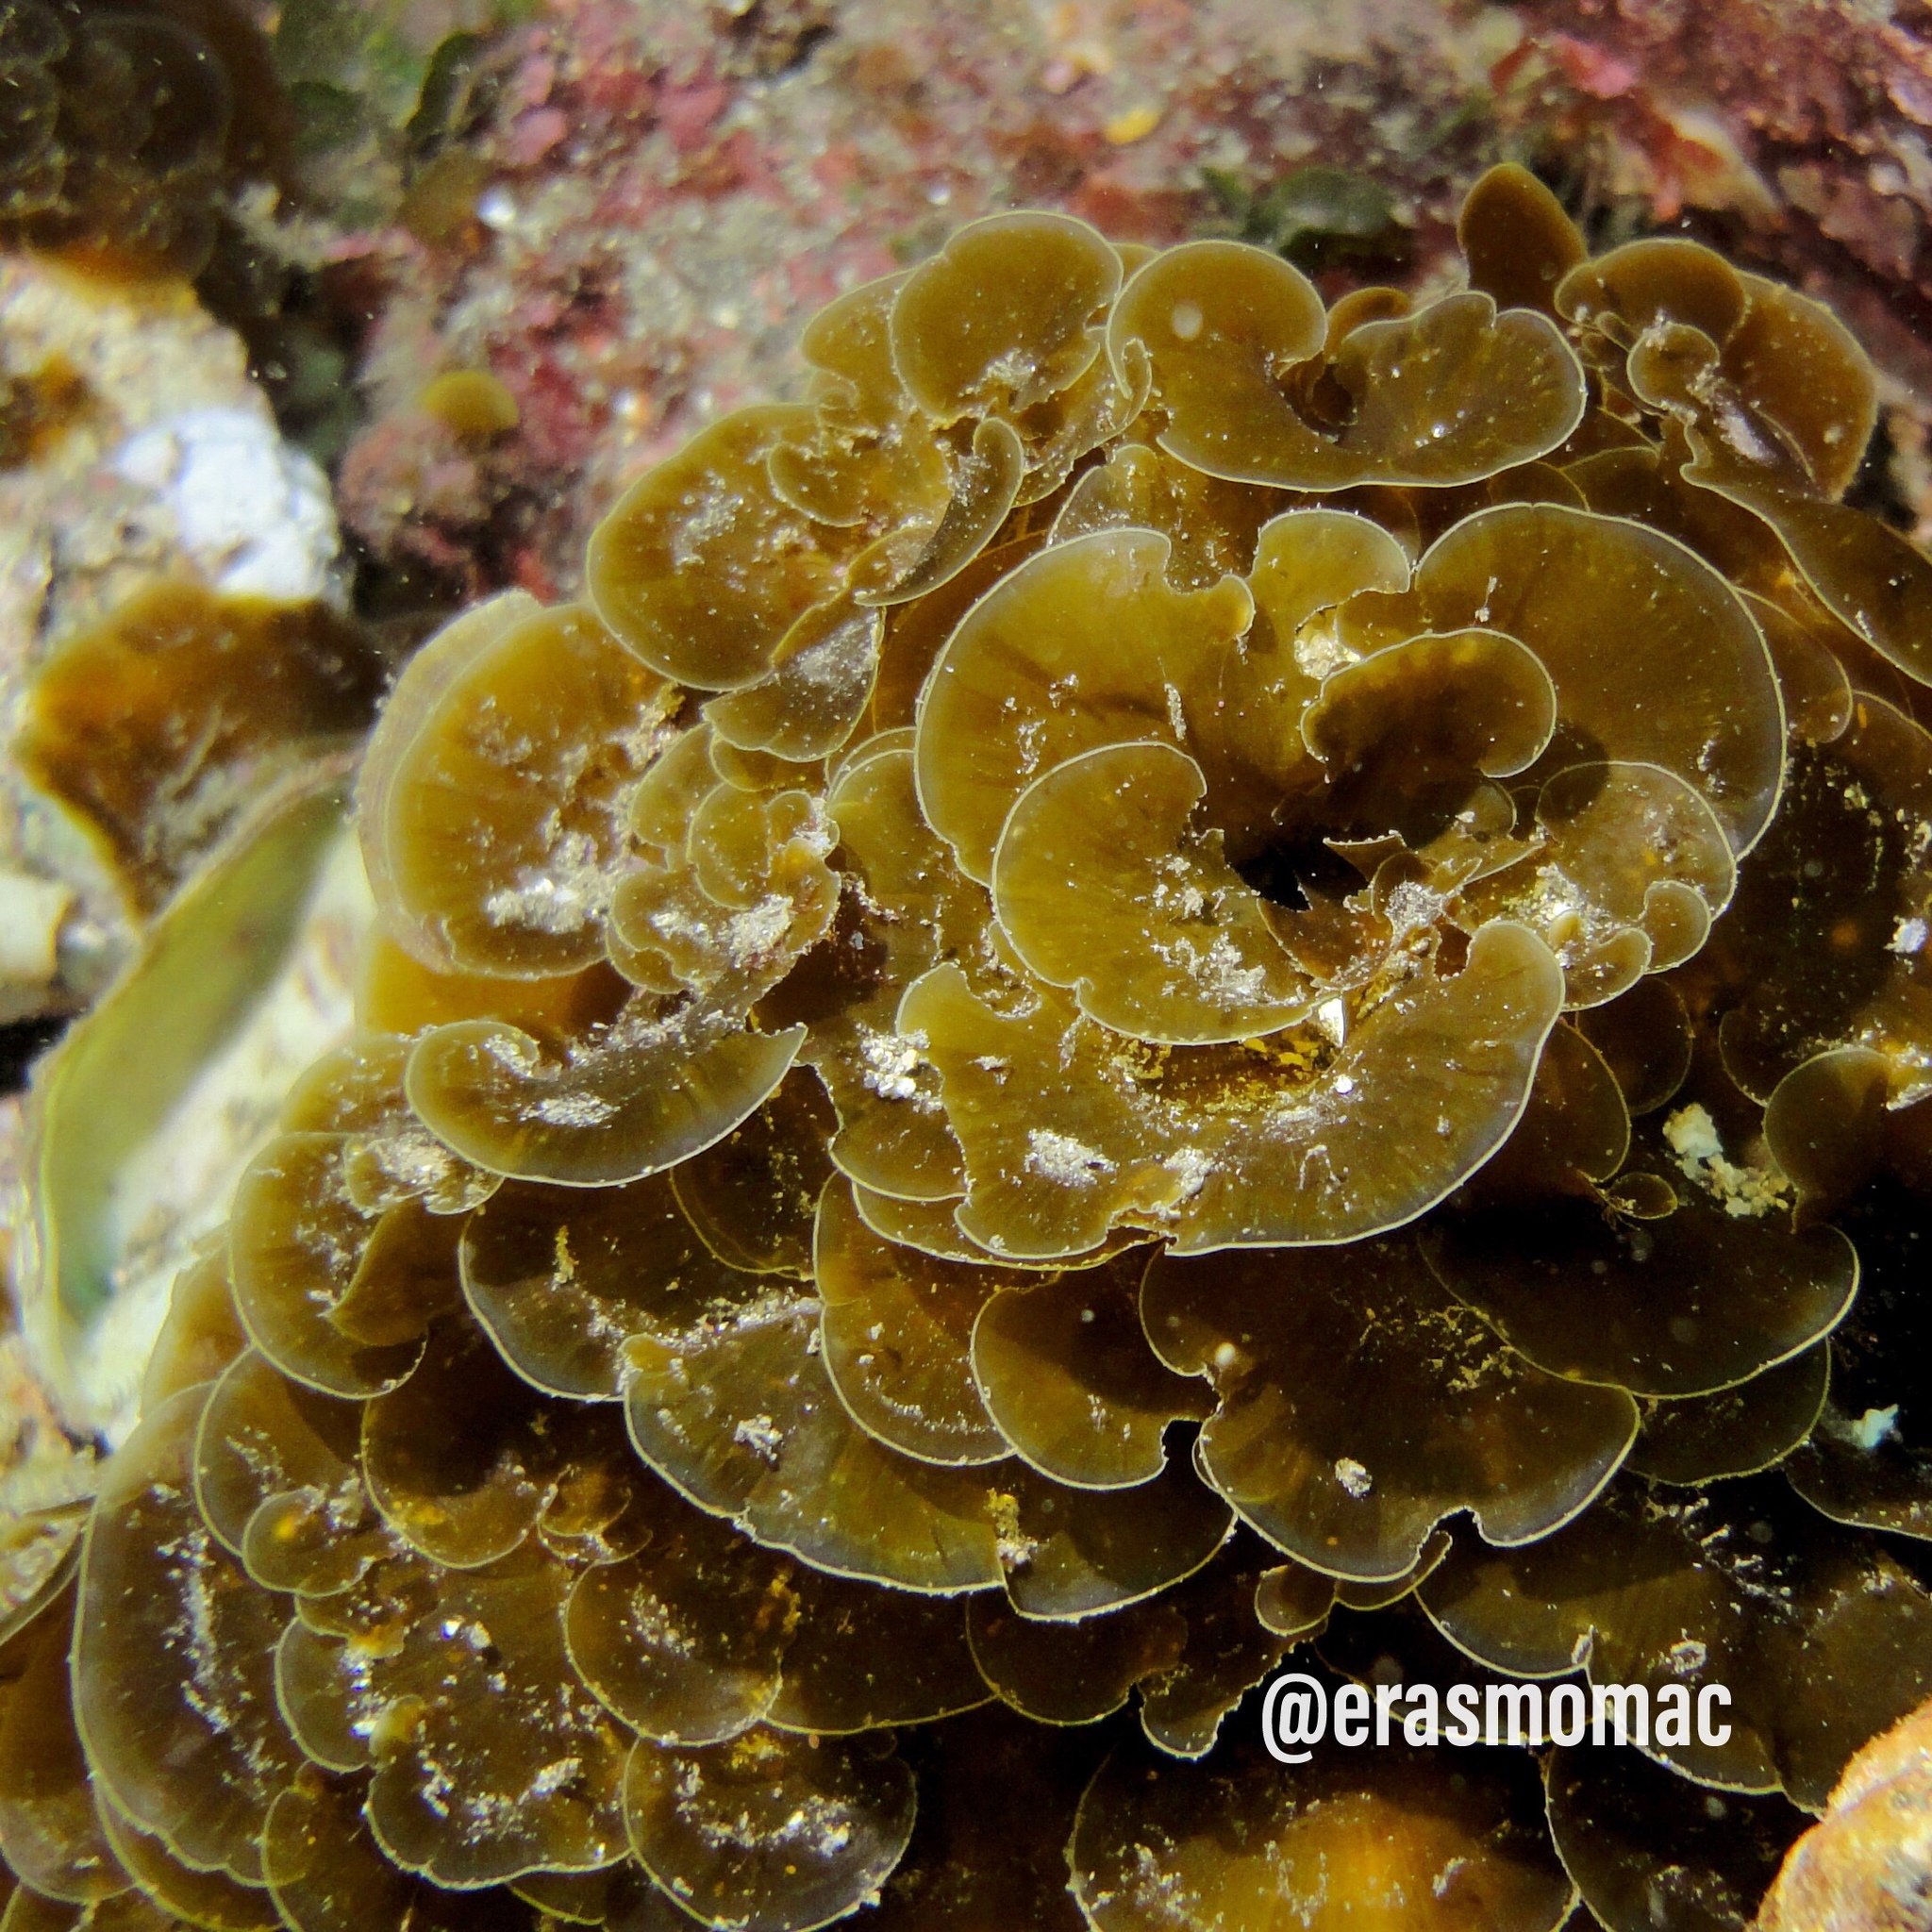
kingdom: Chromista
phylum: Ochrophyta
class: Phaeophyceae
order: Dictyotales
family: Dictyotaceae
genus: Distromium
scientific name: Distromium skottsbergii
